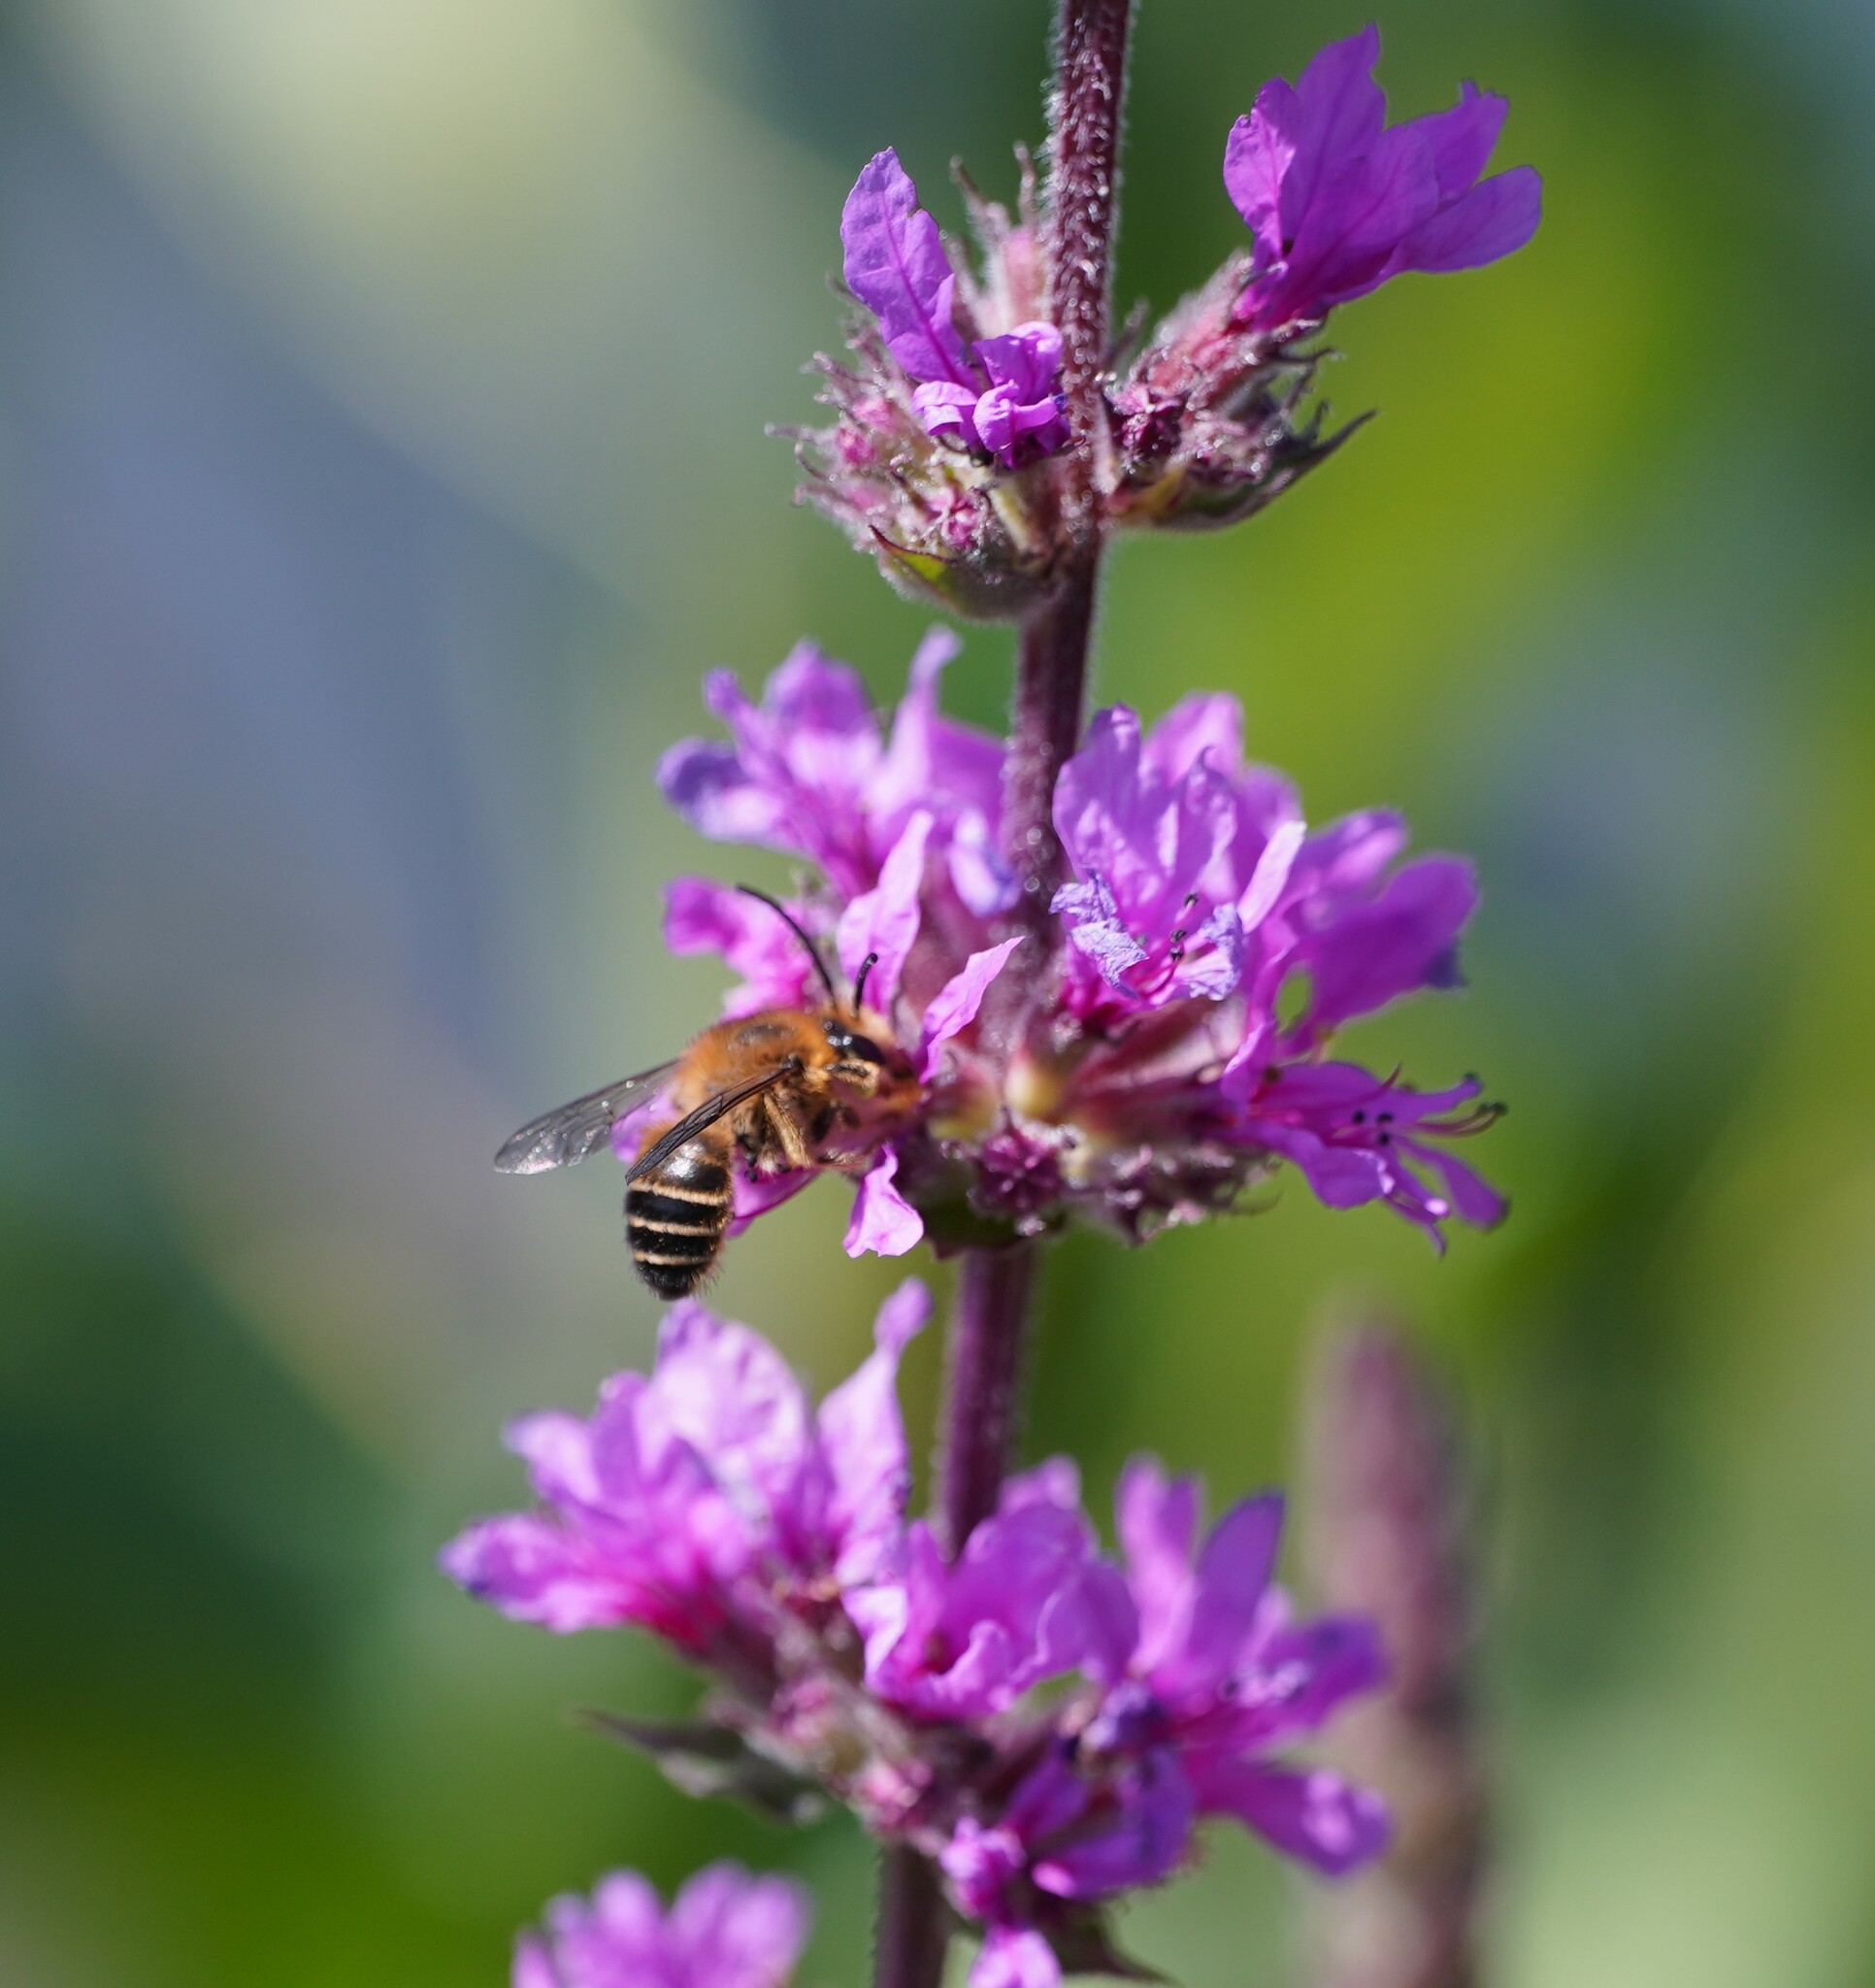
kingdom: Animalia
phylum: Arthropoda
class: Insecta
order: Hymenoptera
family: Melittidae
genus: Melitta
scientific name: Melitta nigricans
